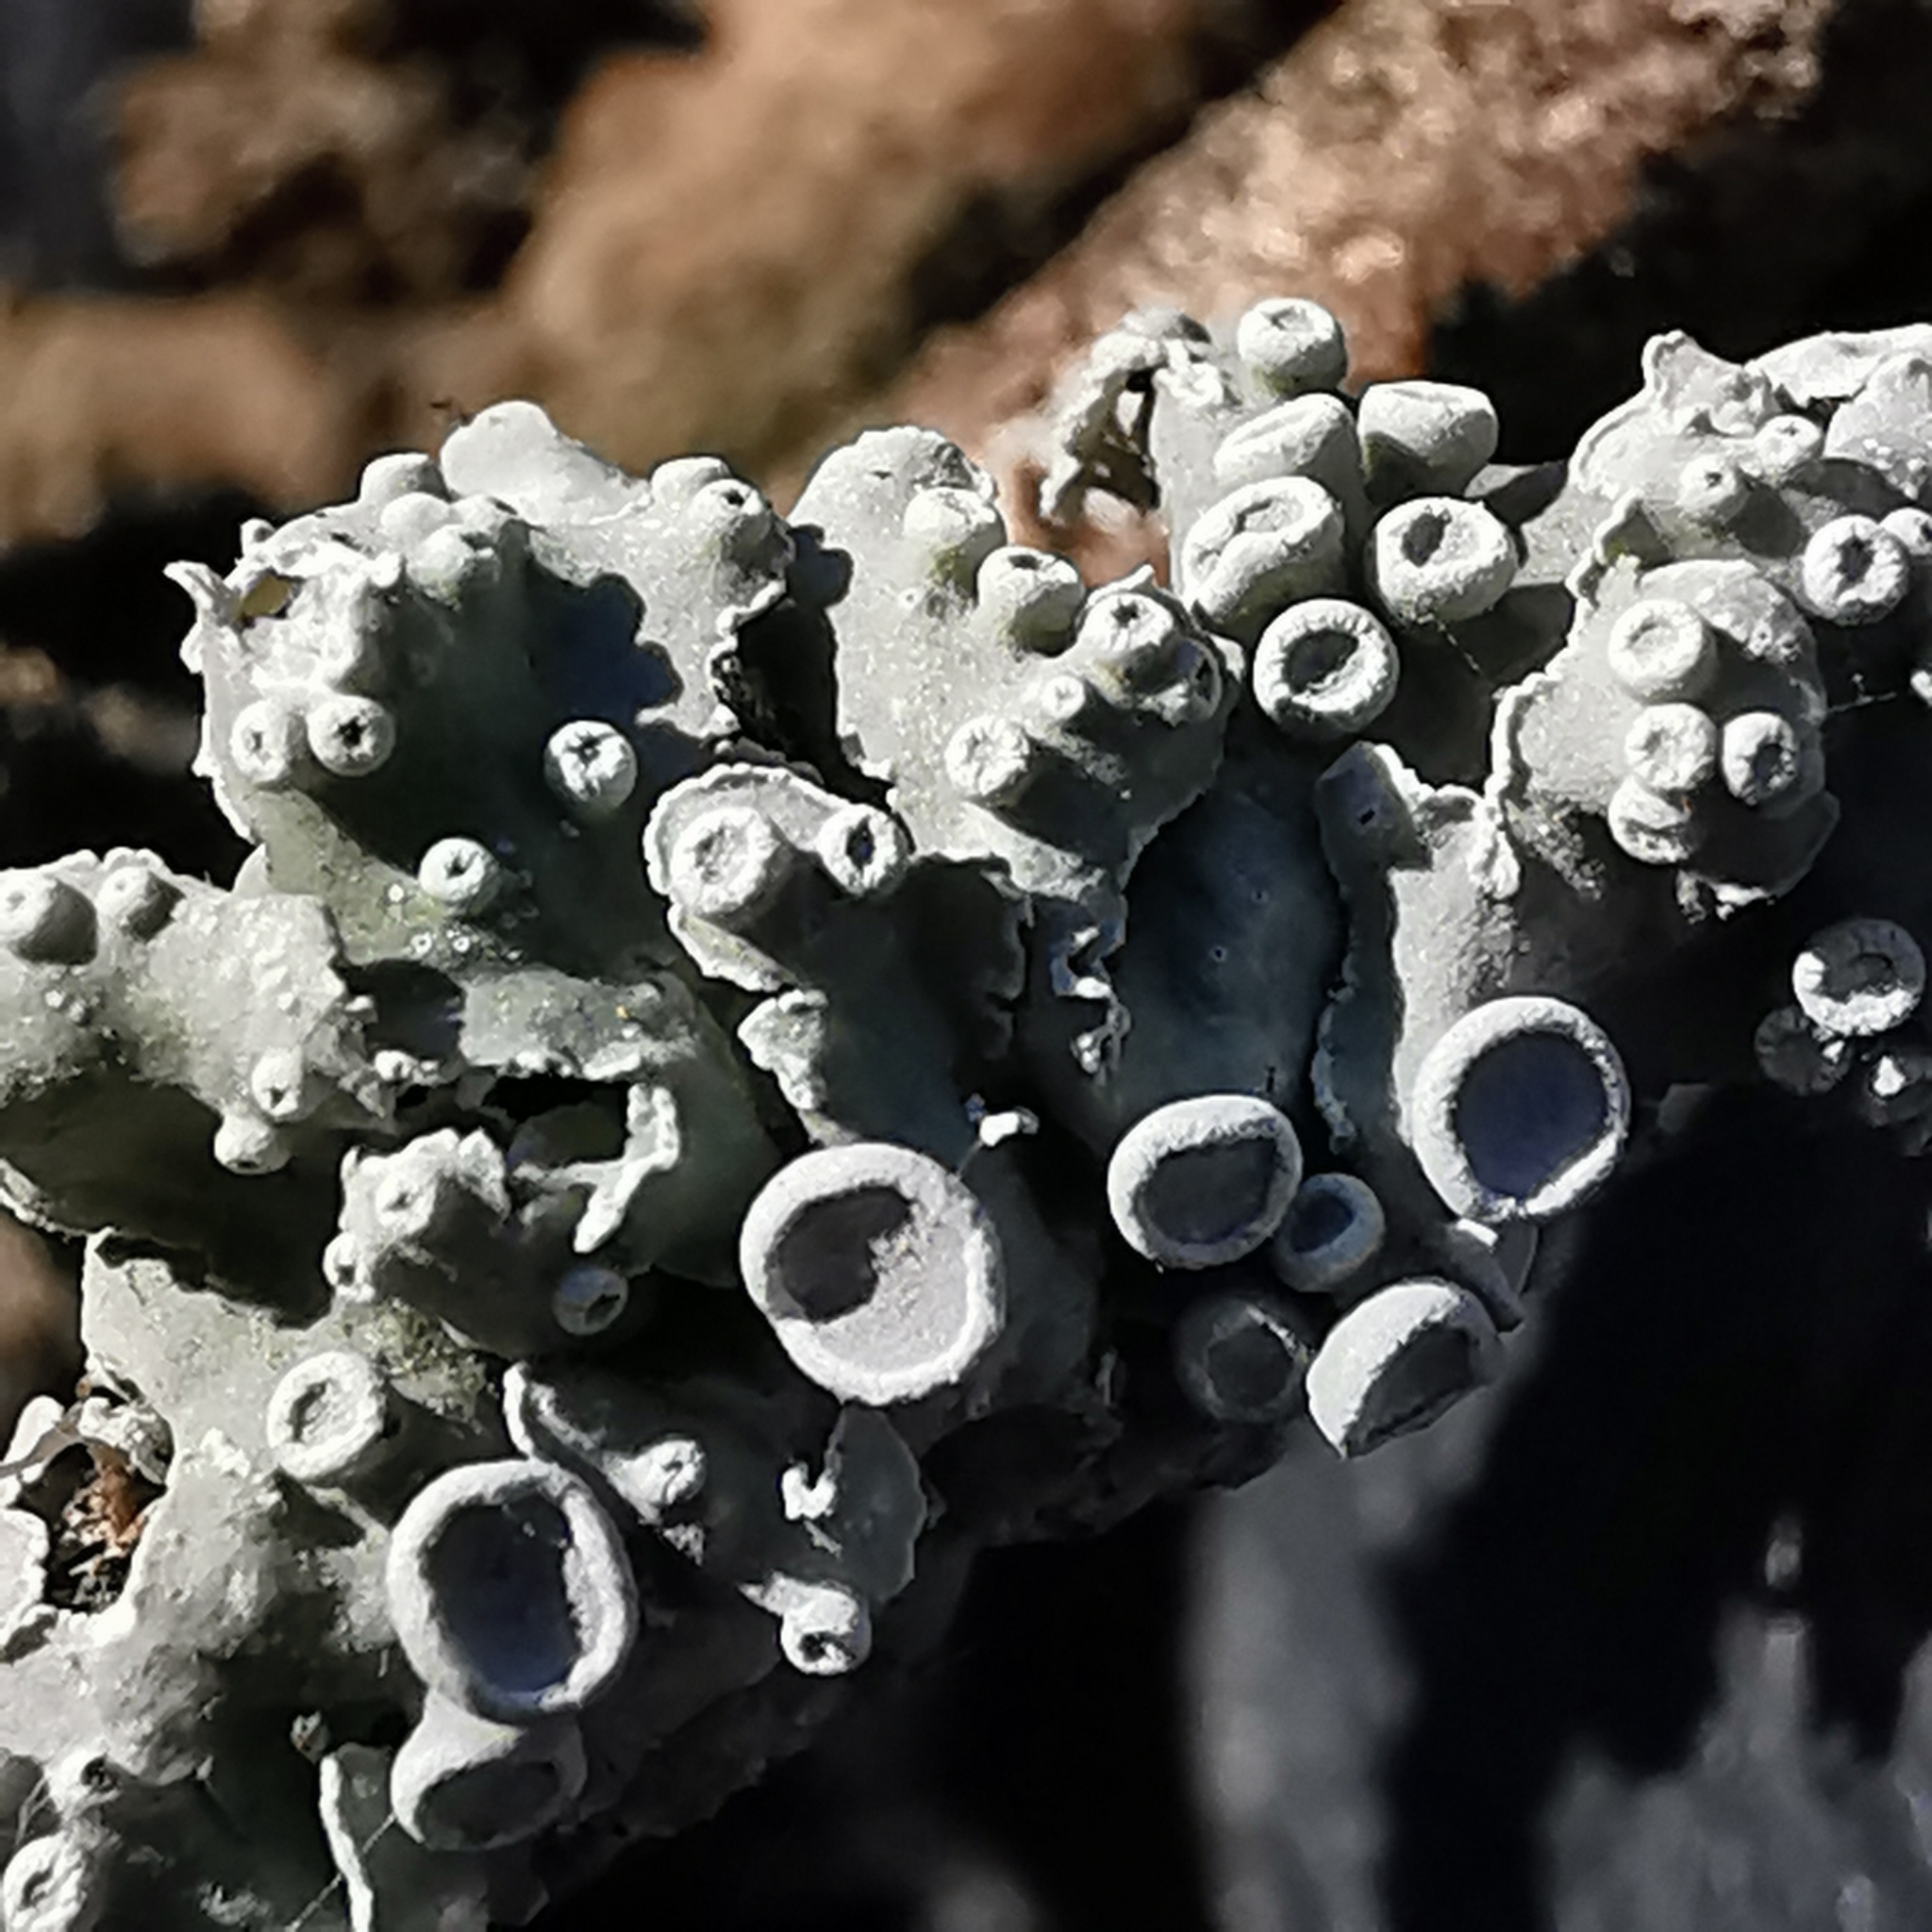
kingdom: Fungi
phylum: Ascomycota
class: Lecanoromycetes
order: Caliciales
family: Physciaceae
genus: Physcia
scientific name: Physcia aipolia
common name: Hoary rosette lichen
